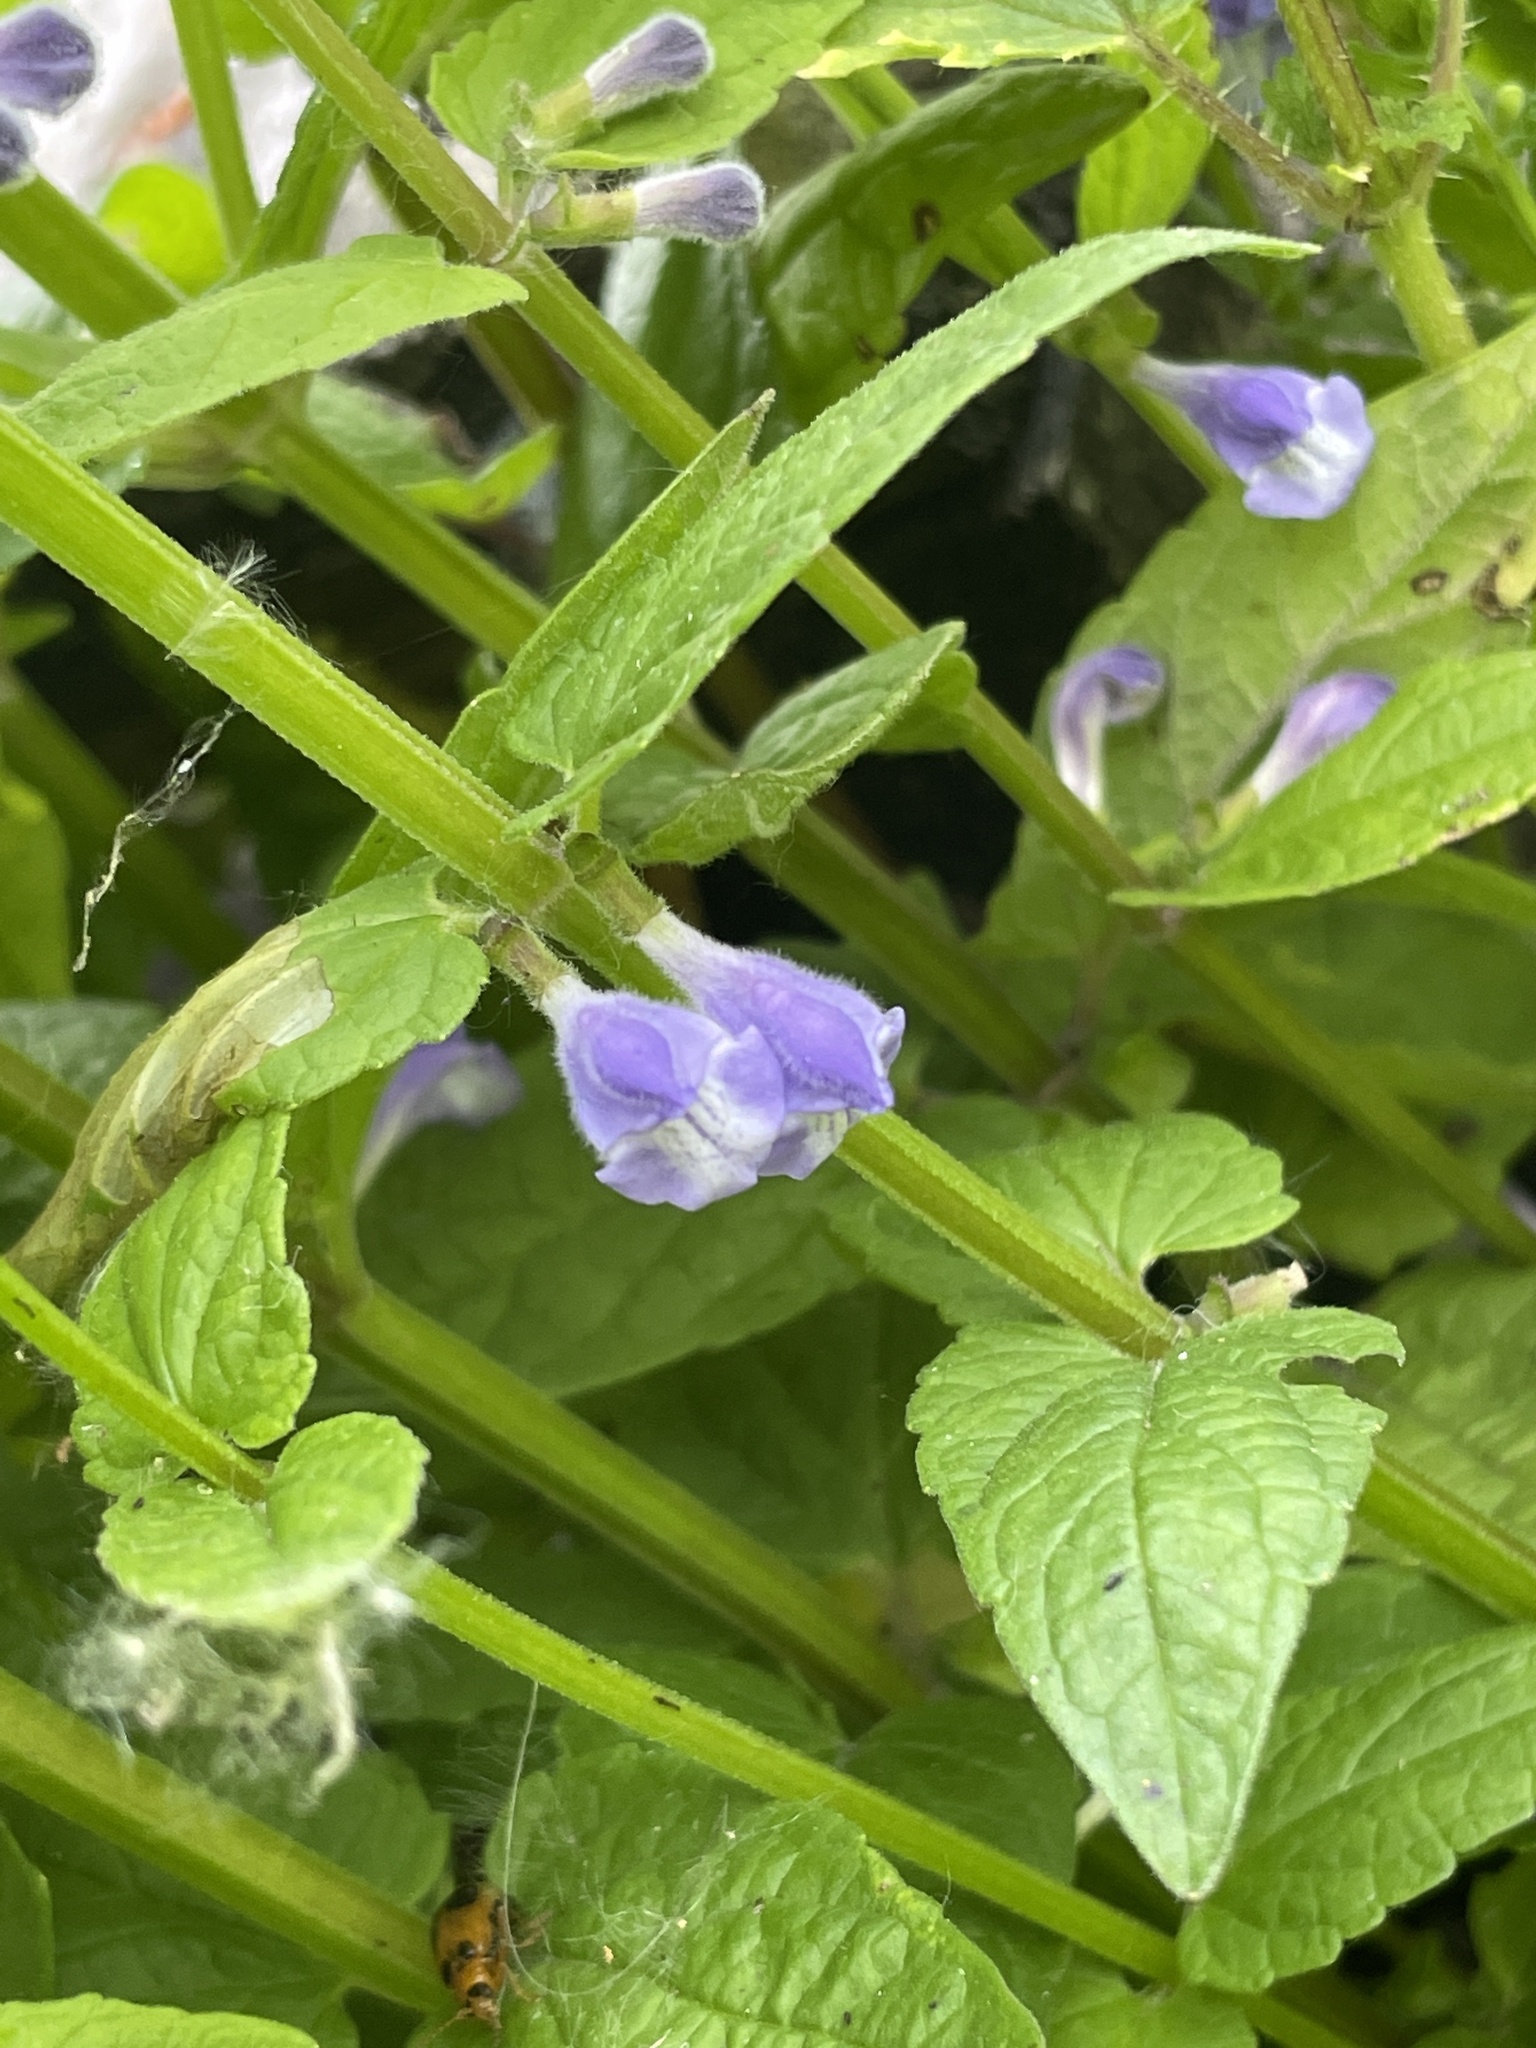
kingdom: Plantae
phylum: Tracheophyta
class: Magnoliopsida
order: Lamiales
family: Lamiaceae
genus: Scutellaria
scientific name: Scutellaria galericulata
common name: Skullcap
